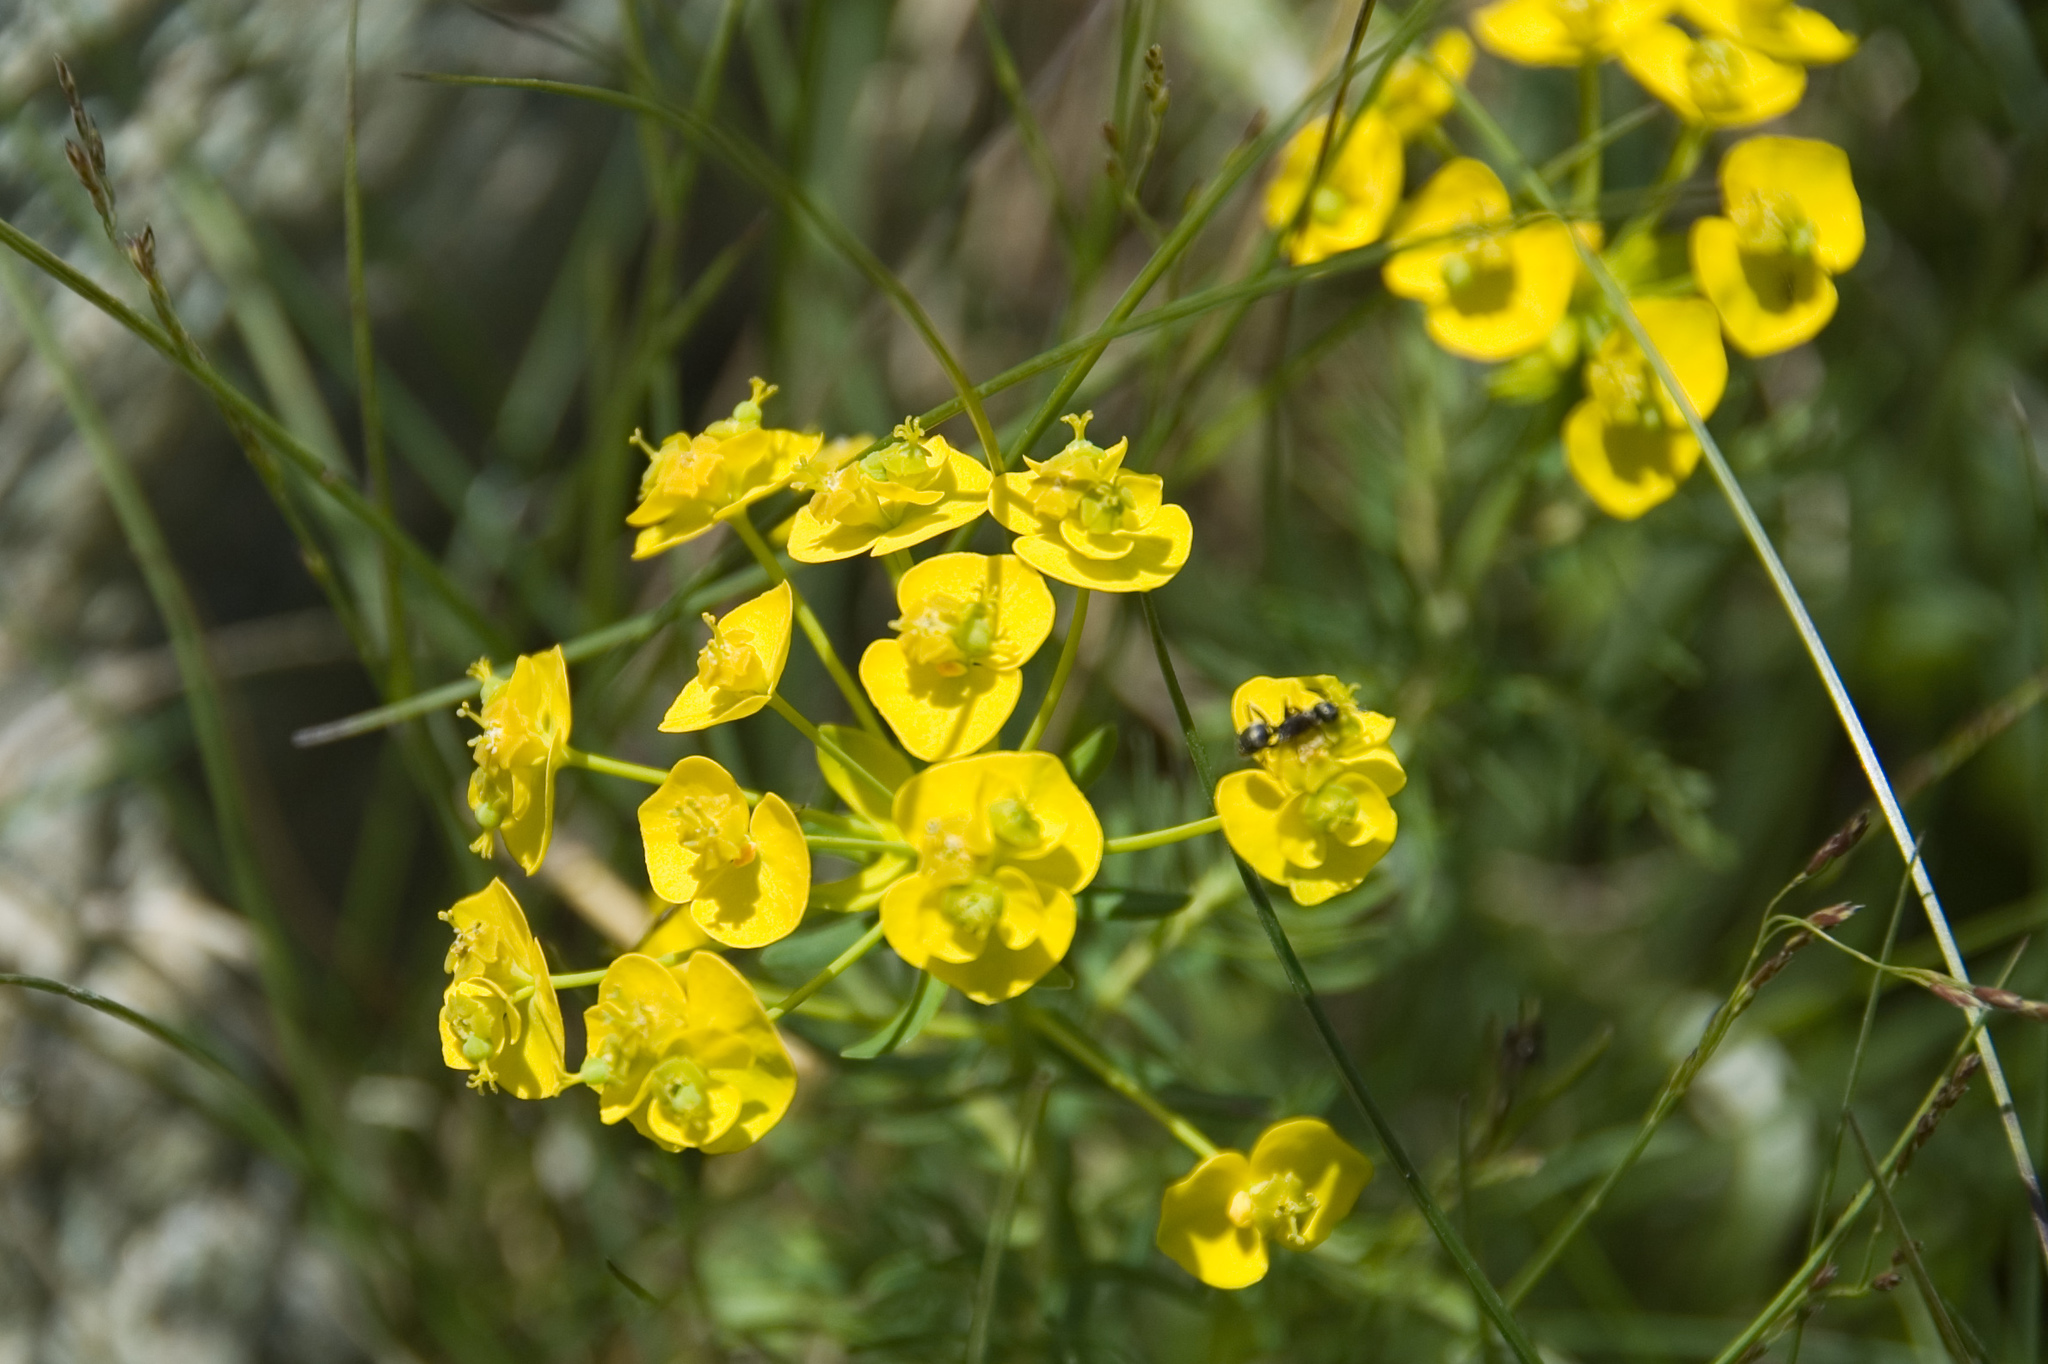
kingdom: Plantae
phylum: Tracheophyta
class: Magnoliopsida
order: Malpighiales
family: Euphorbiaceae
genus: Euphorbia
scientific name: Euphorbia cyparissias
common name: Cypress spurge
